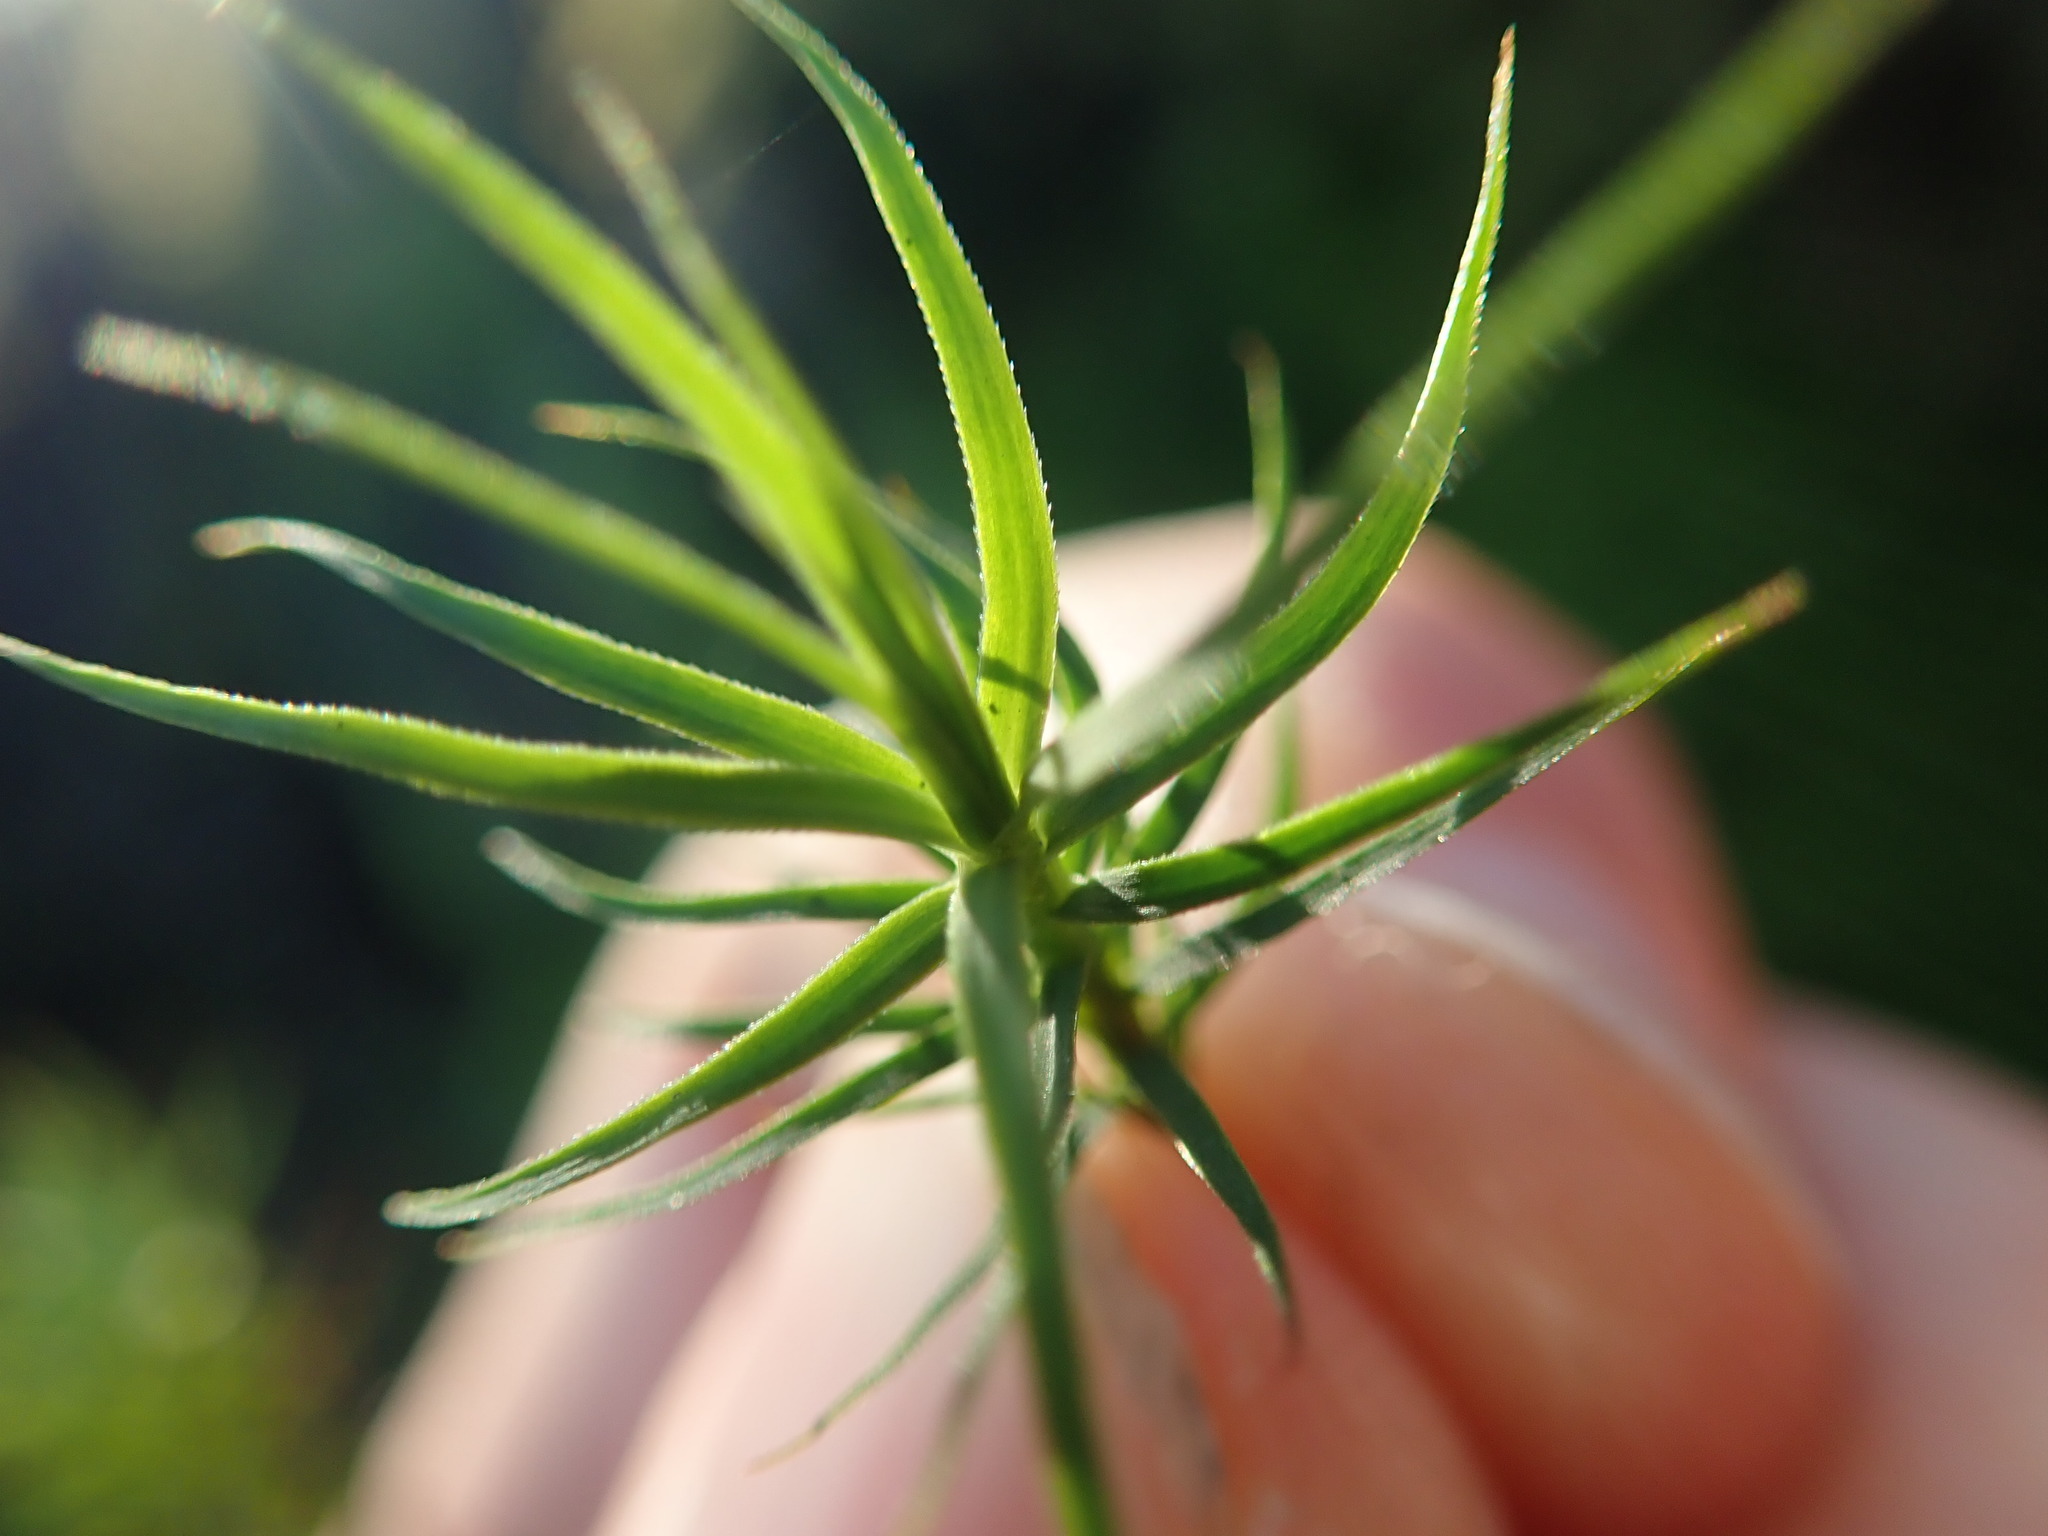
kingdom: Plantae
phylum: Bryophyta
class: Polytrichopsida
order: Polytrichales
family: Polytrichaceae
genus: Polytrichastrum
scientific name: Polytrichastrum alpinum
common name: Alpine haircap
